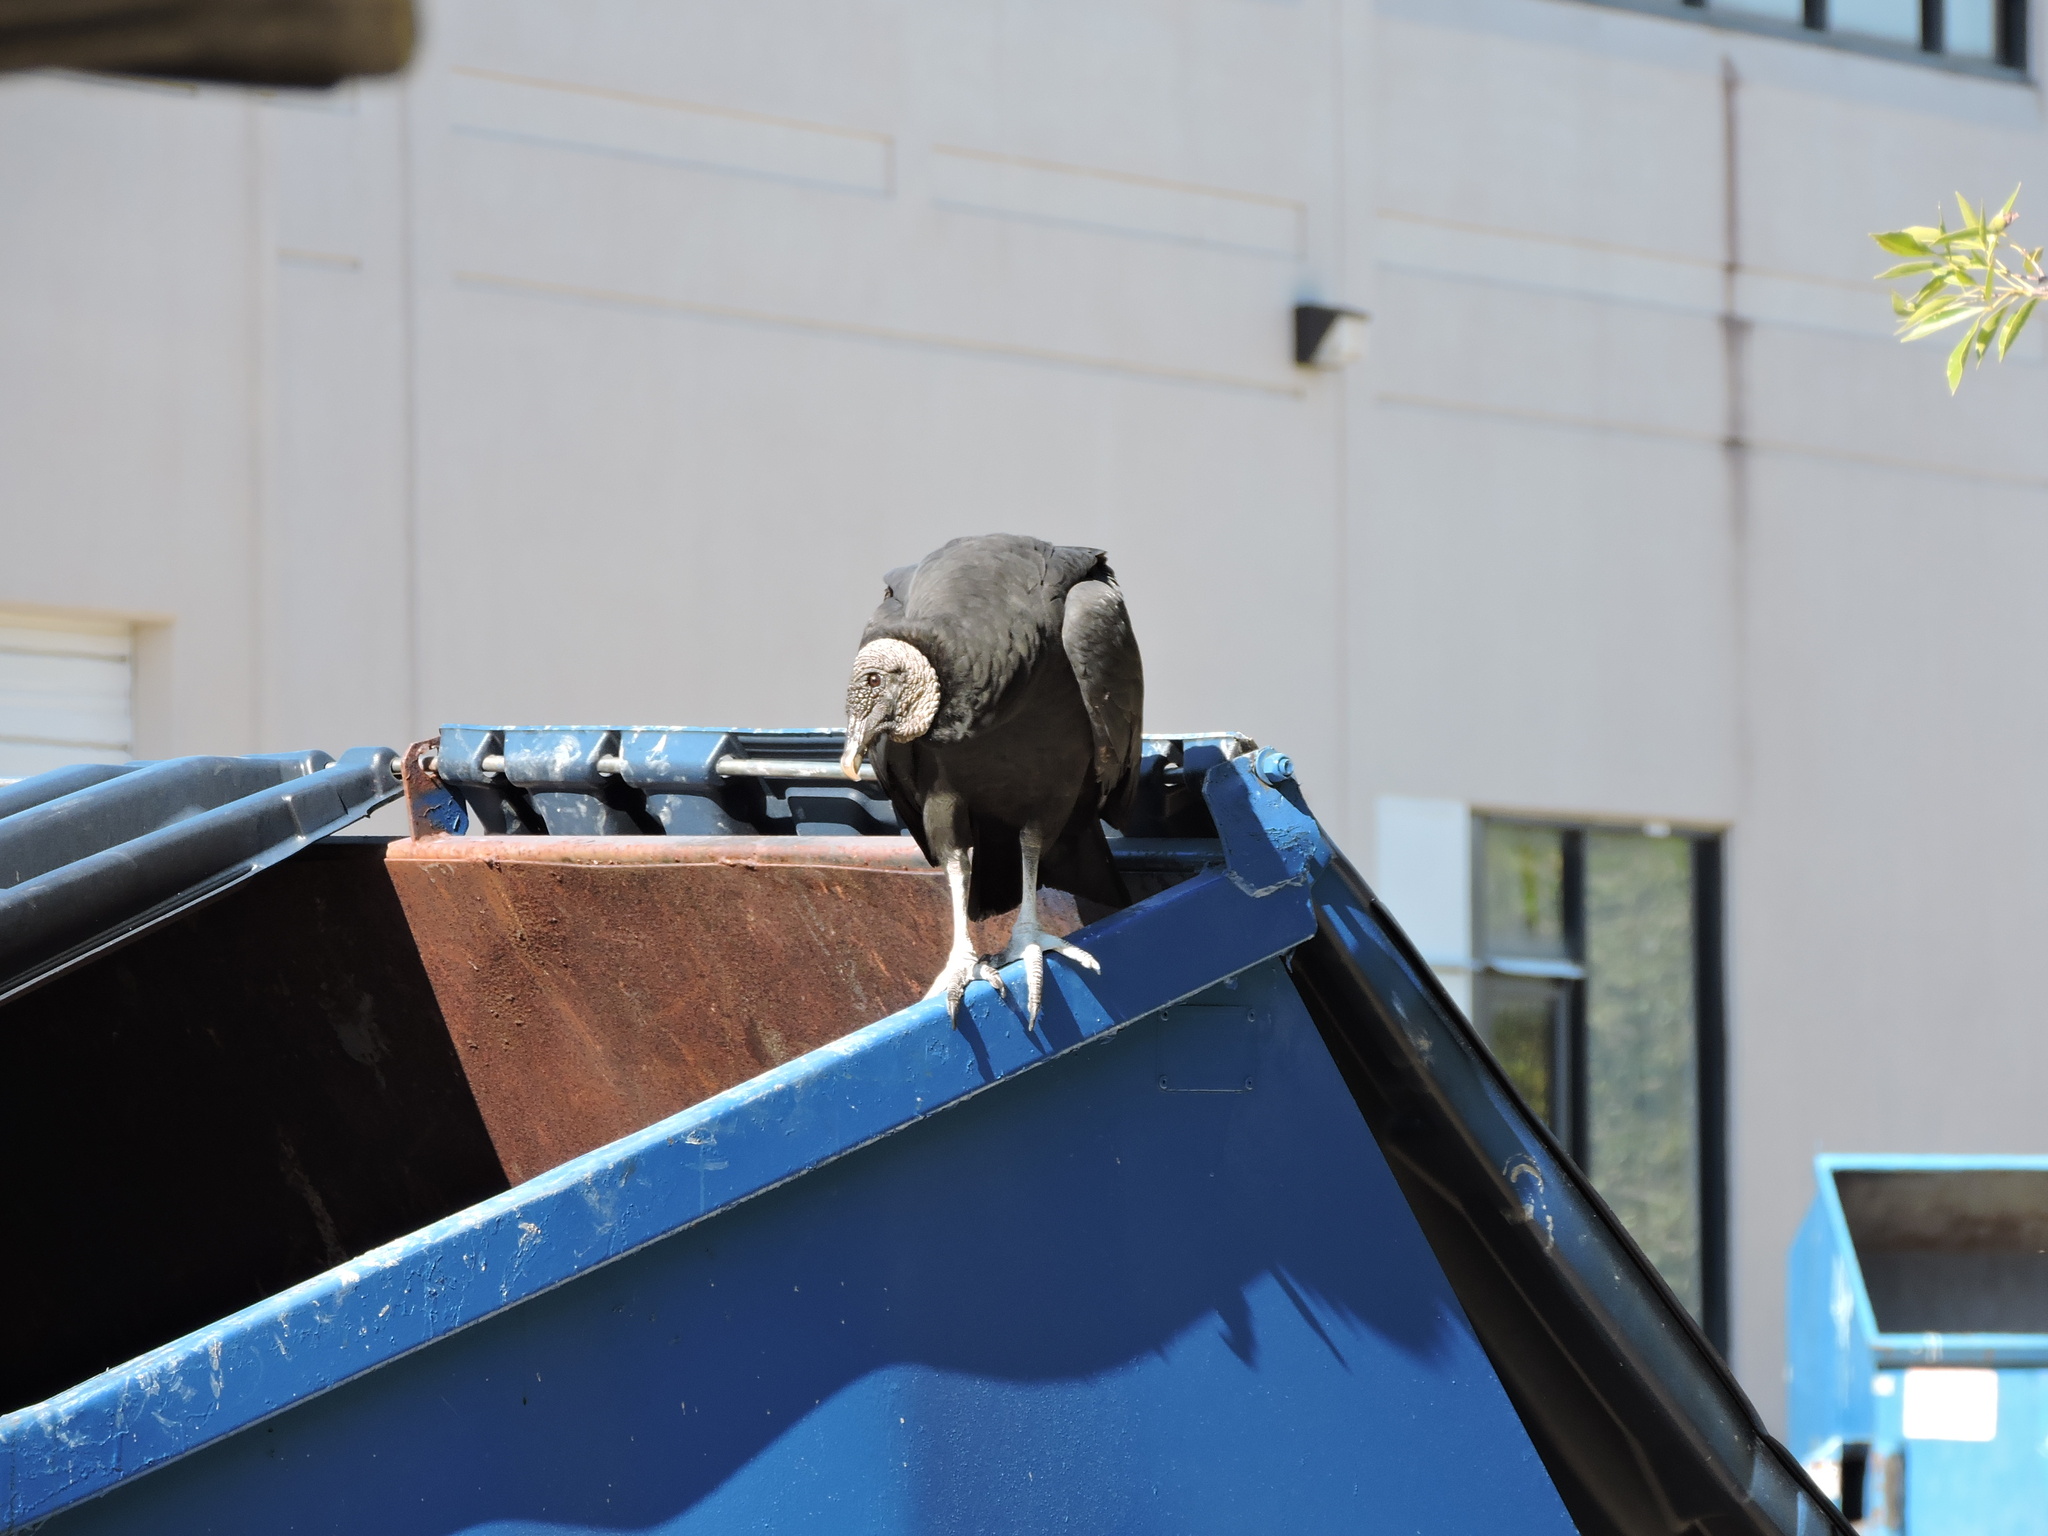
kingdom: Animalia
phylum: Chordata
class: Aves
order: Accipitriformes
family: Cathartidae
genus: Coragyps
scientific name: Coragyps atratus
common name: Black vulture
